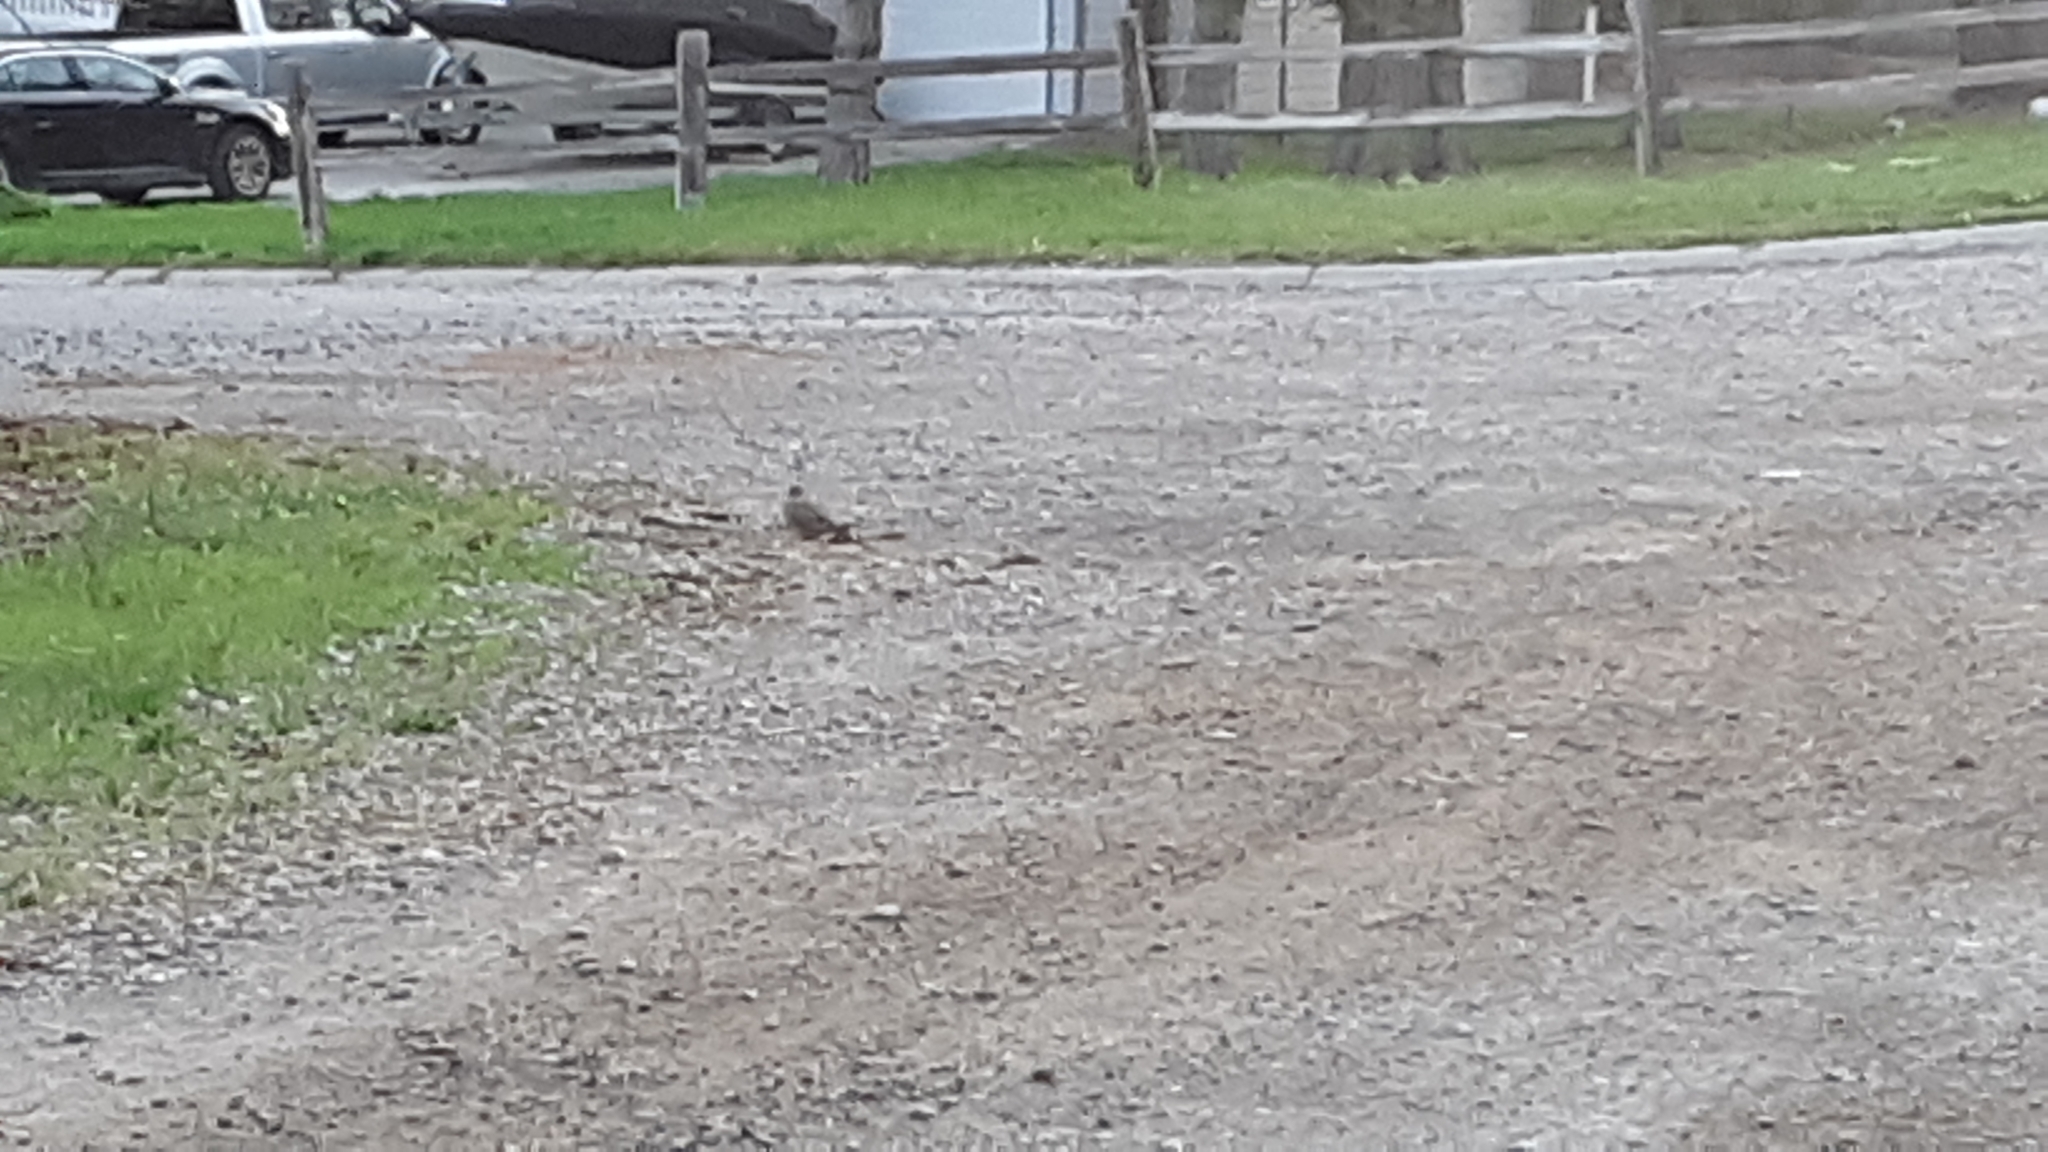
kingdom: Animalia
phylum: Chordata
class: Aves
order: Columbiformes
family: Columbidae
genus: Zenaida
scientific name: Zenaida macroura
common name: Mourning dove
